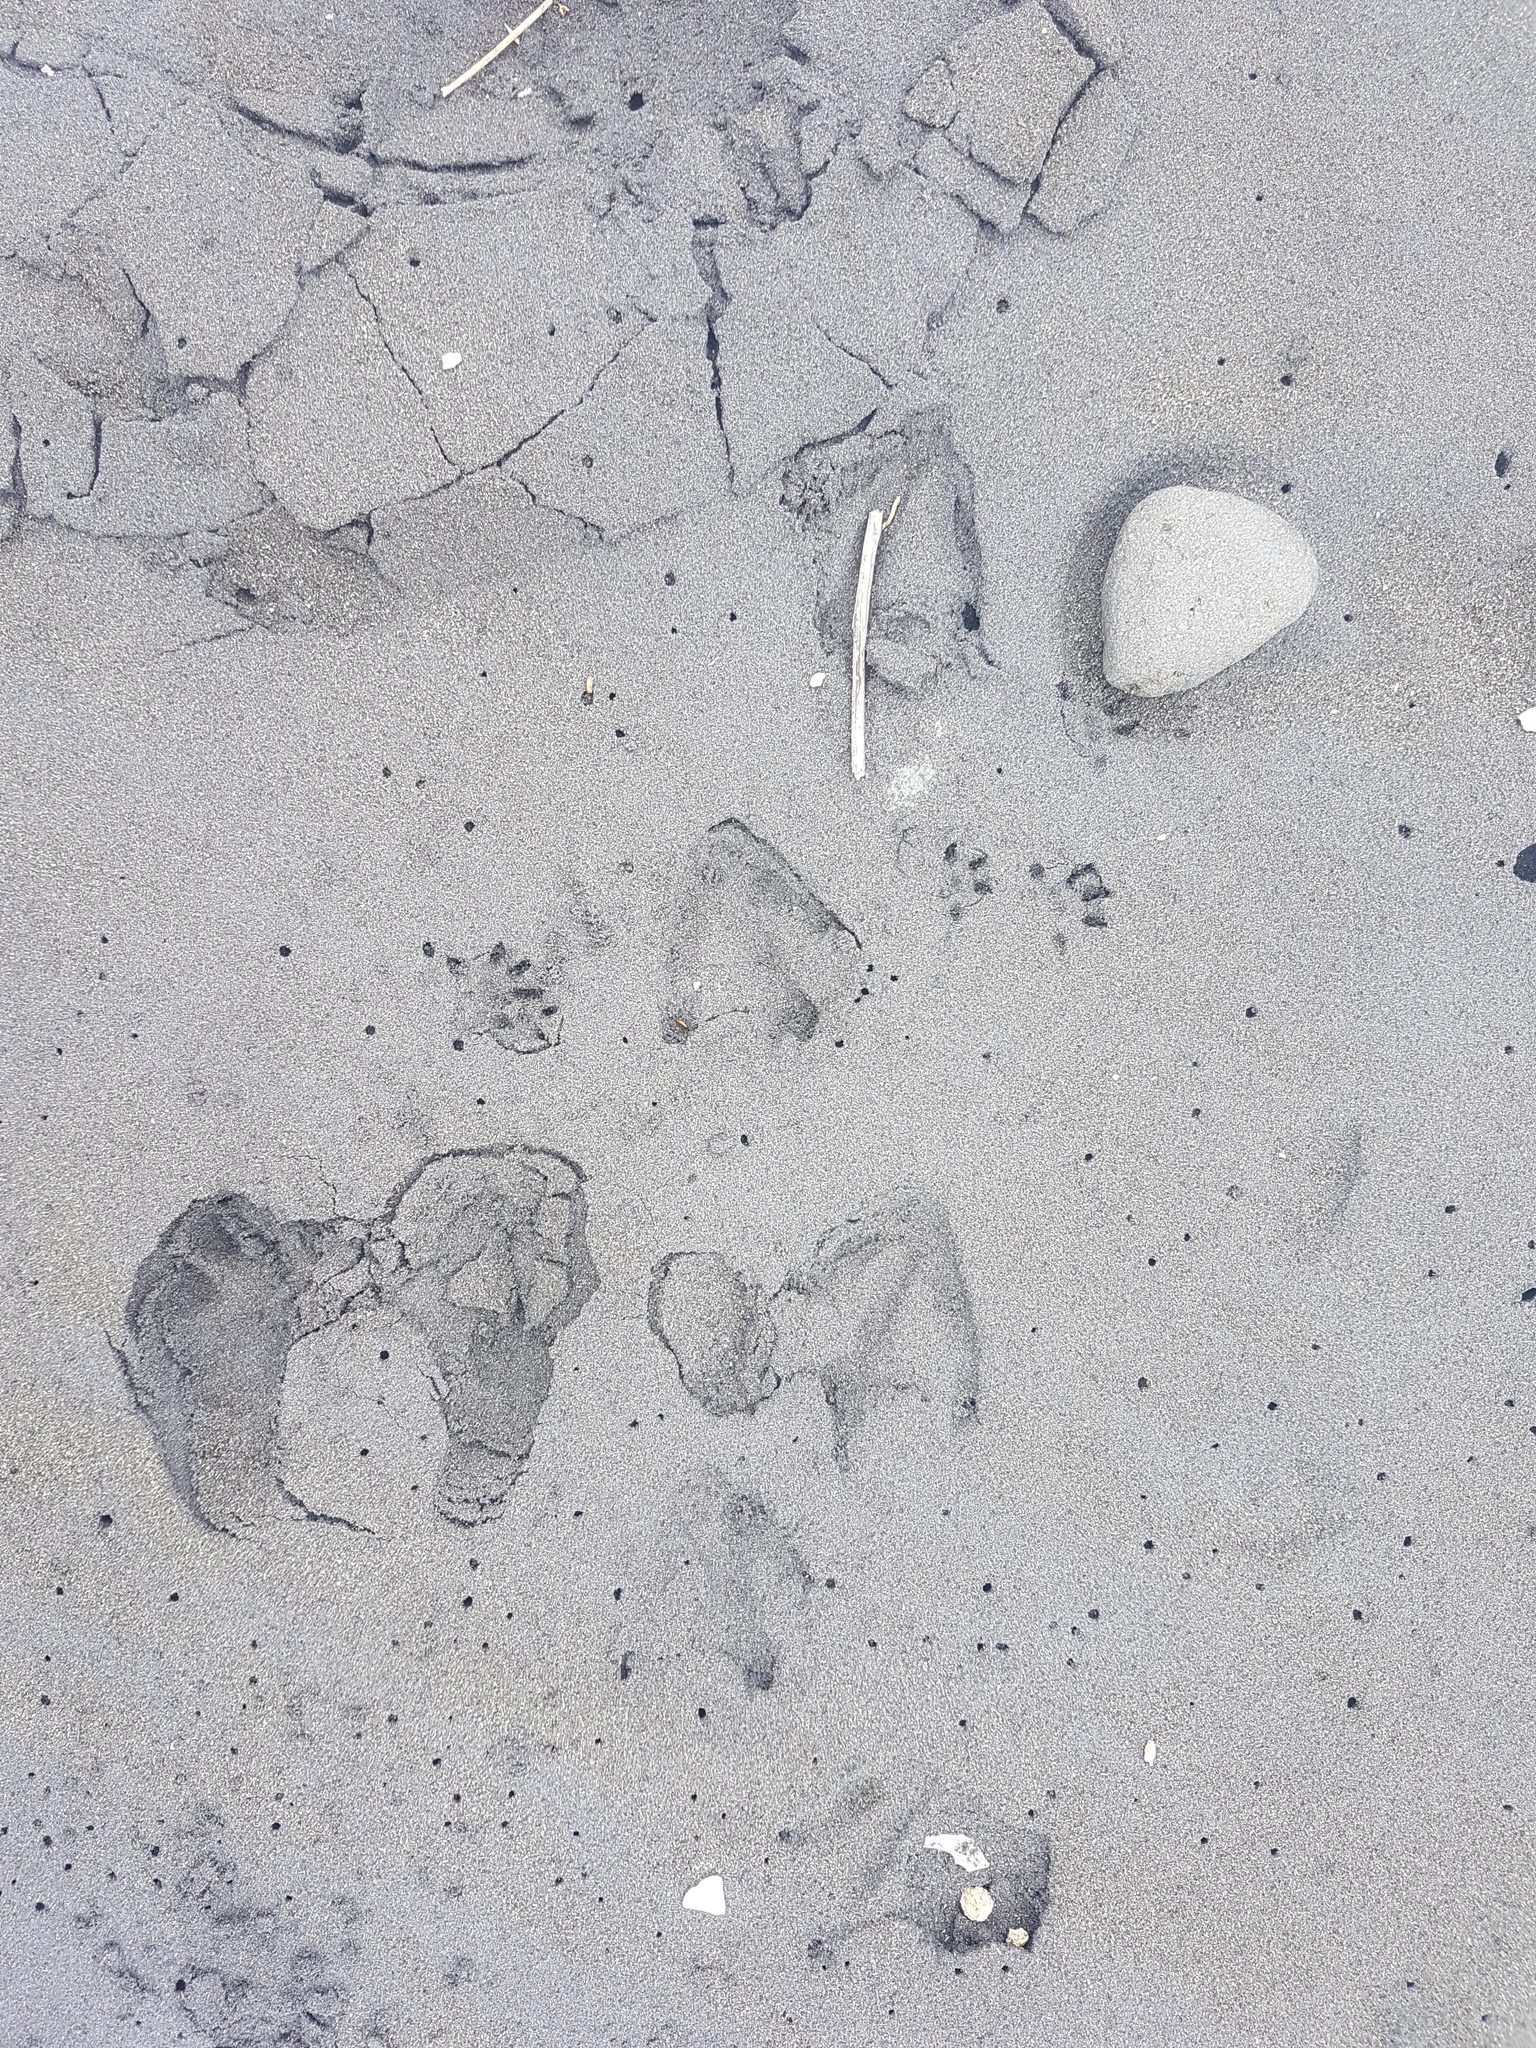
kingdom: Animalia
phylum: Chordata
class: Aves
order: Sphenisciformes
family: Spheniscidae
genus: Eudyptula
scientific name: Eudyptula minor
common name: Little penguin
